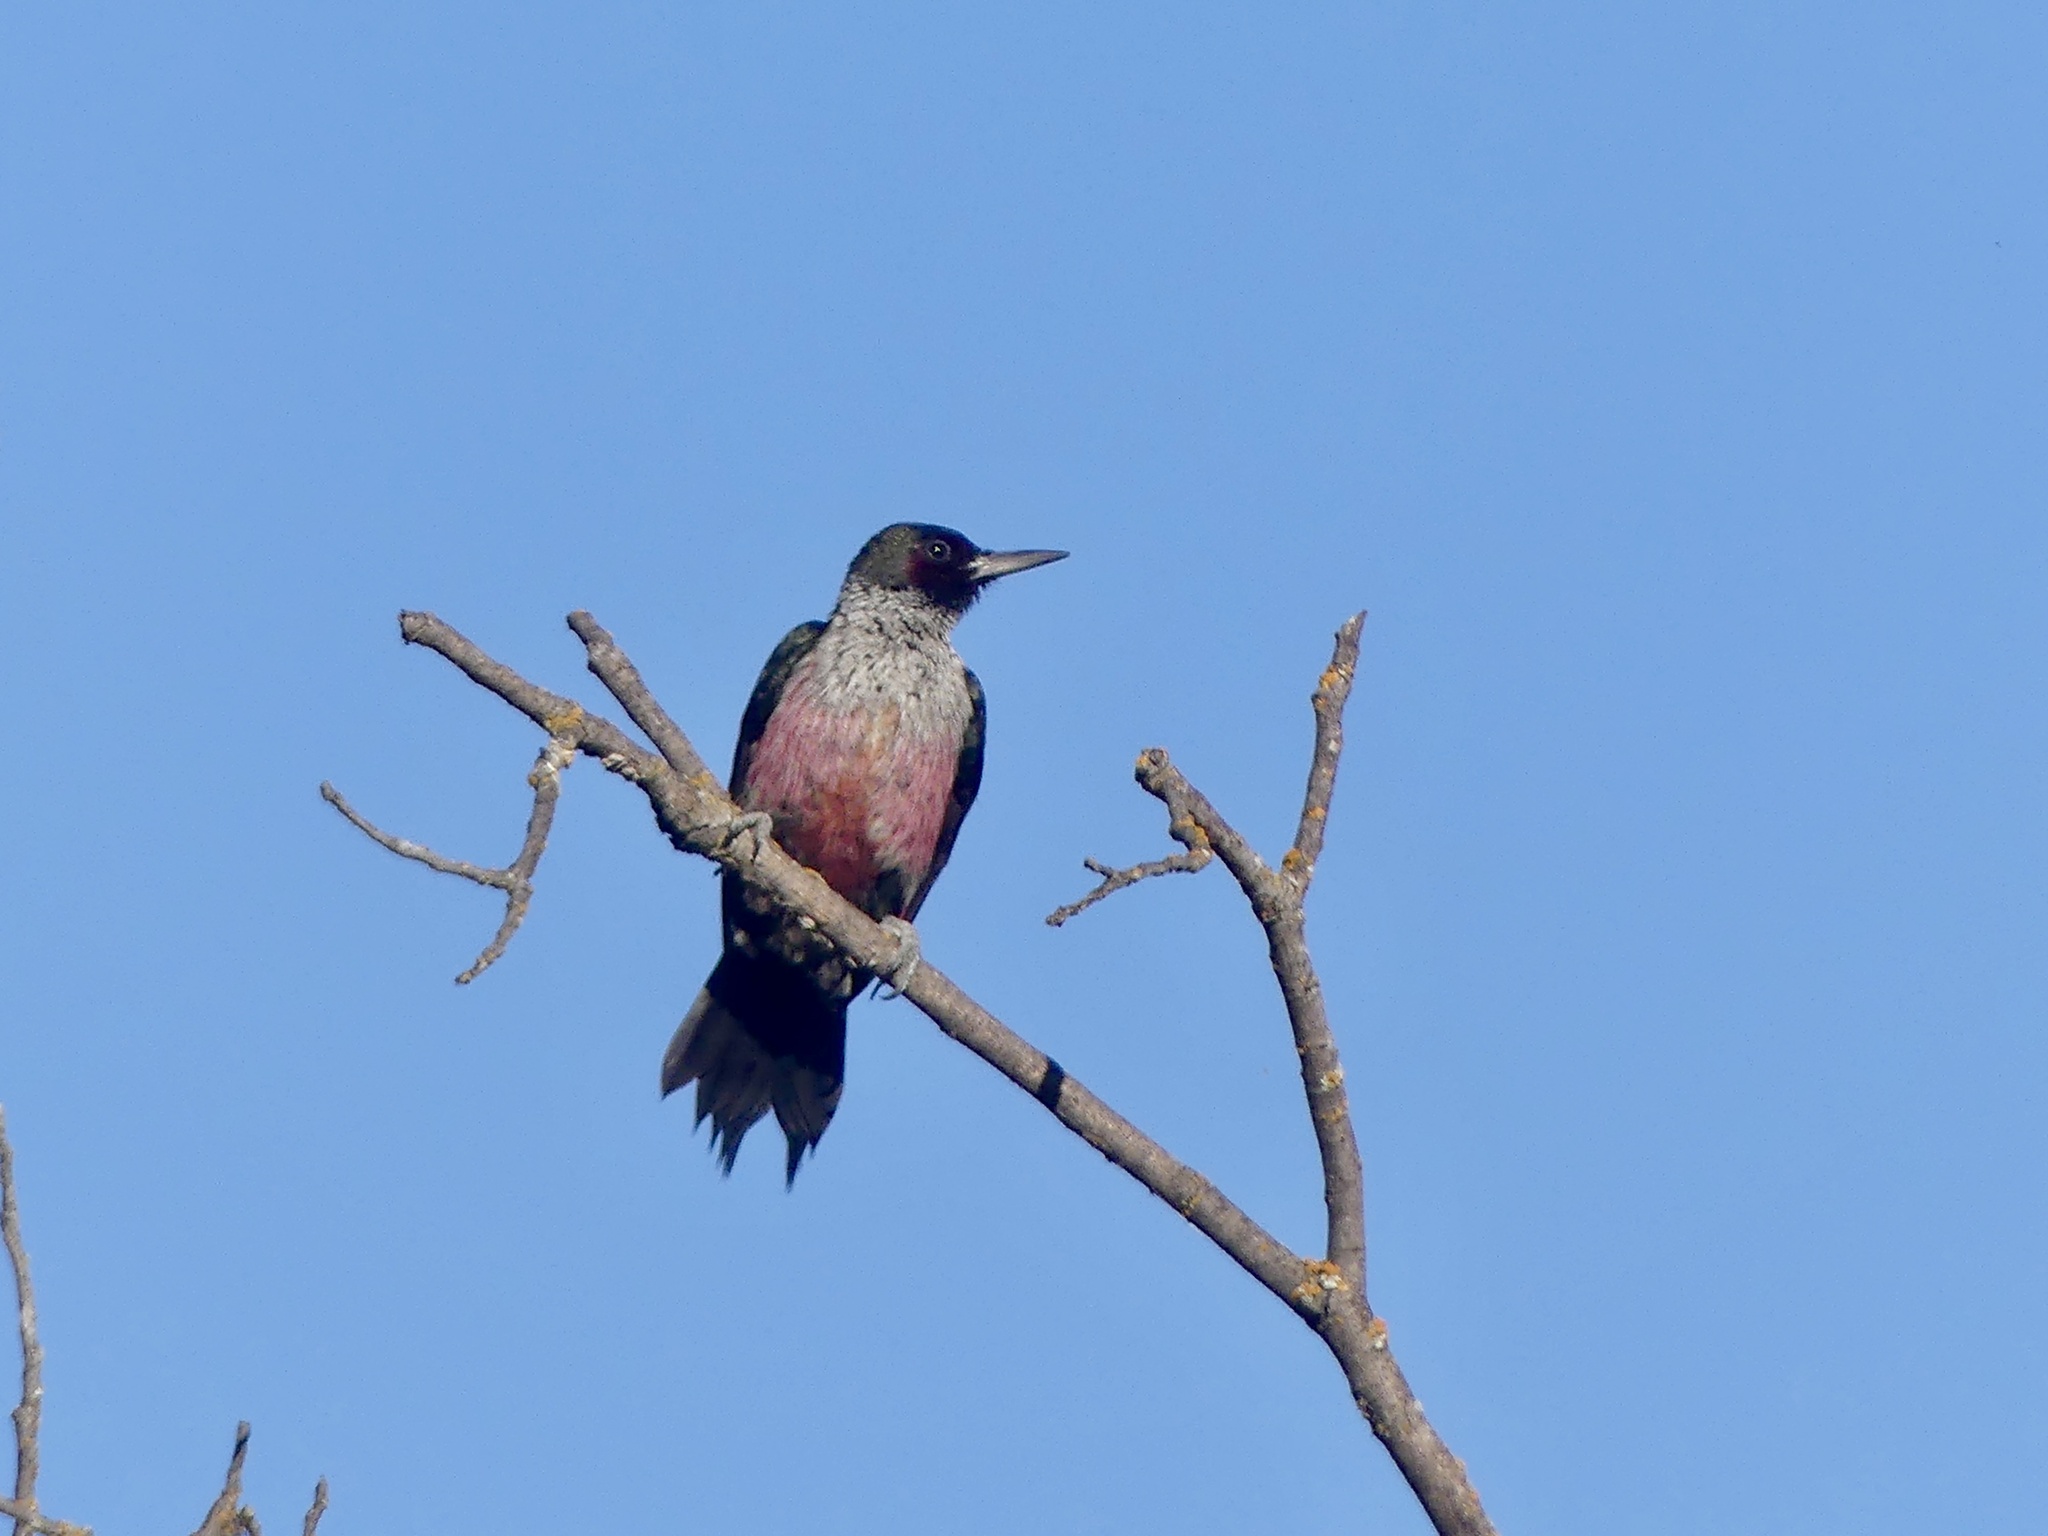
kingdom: Animalia
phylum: Chordata
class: Aves
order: Piciformes
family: Picidae
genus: Melanerpes
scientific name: Melanerpes lewis
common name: Lewis's woodpecker
